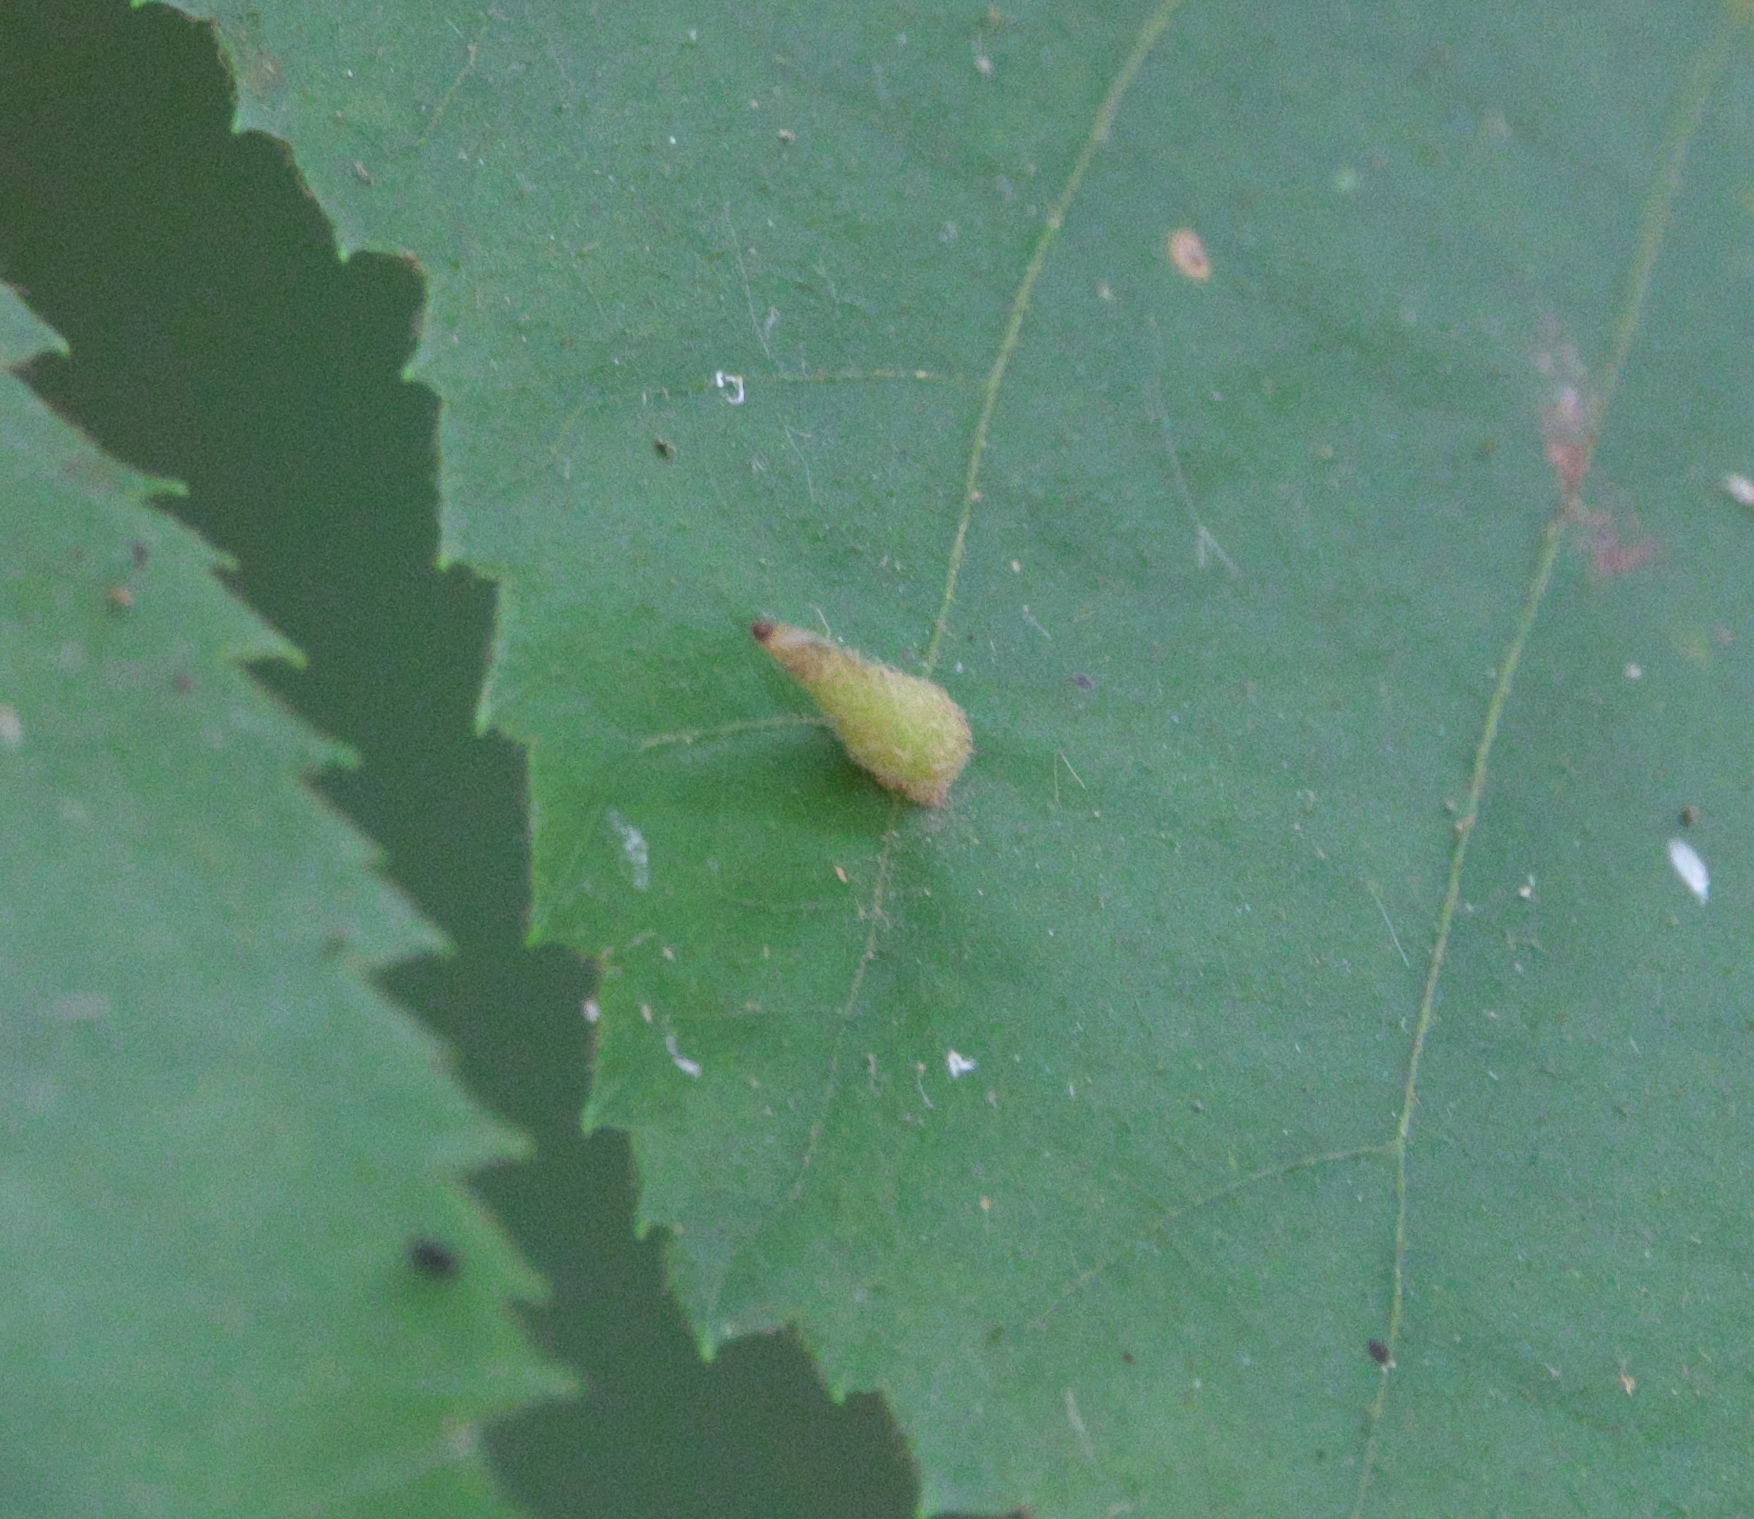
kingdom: Animalia
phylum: Arthropoda
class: Insecta
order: Diptera
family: Cecidomyiidae
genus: Caryomyia
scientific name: Caryomyia spinulosa
